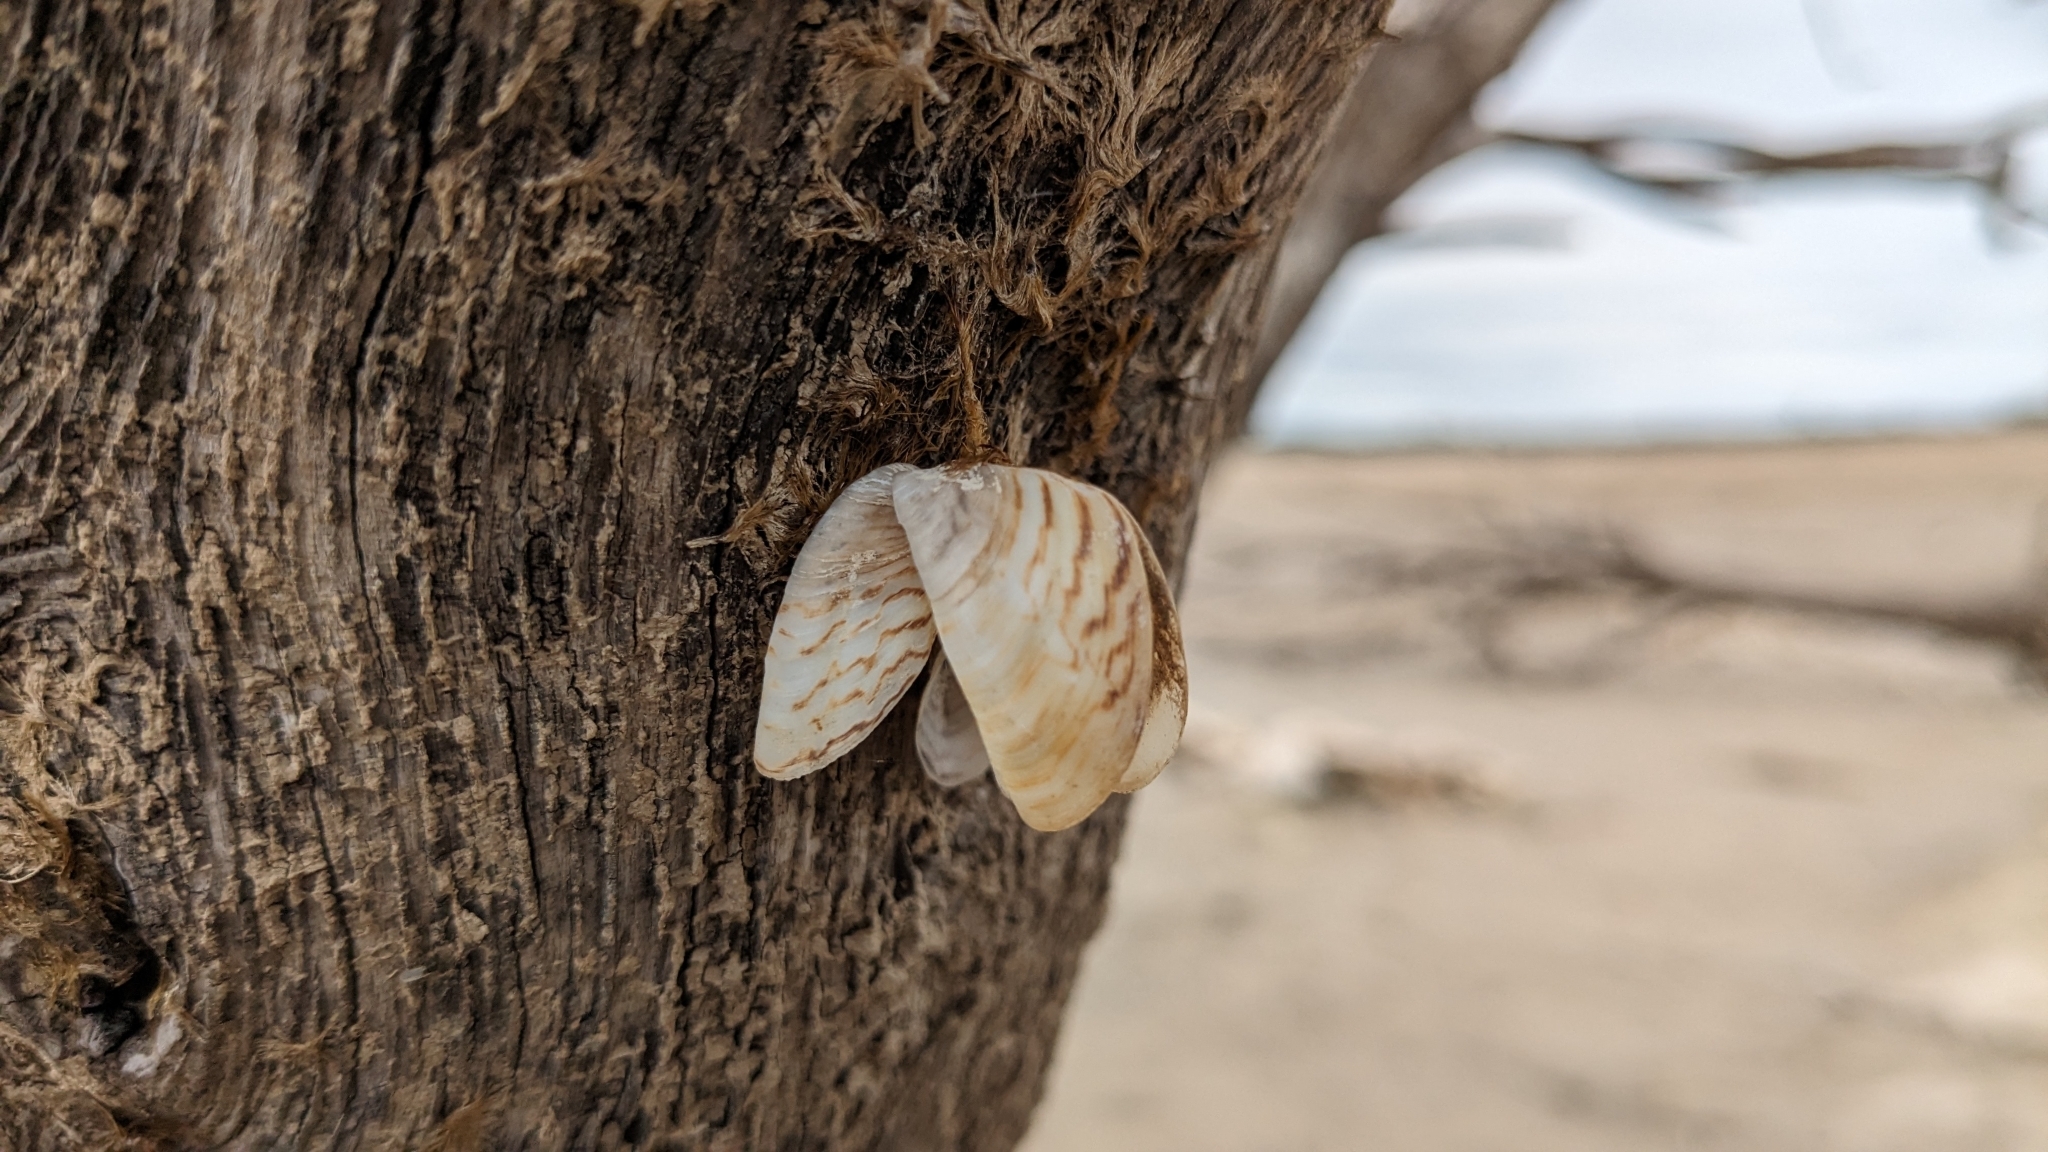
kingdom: Animalia
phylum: Mollusca
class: Bivalvia
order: Myida
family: Dreissenidae
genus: Dreissena
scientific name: Dreissena polymorpha
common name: Zebra mussel
